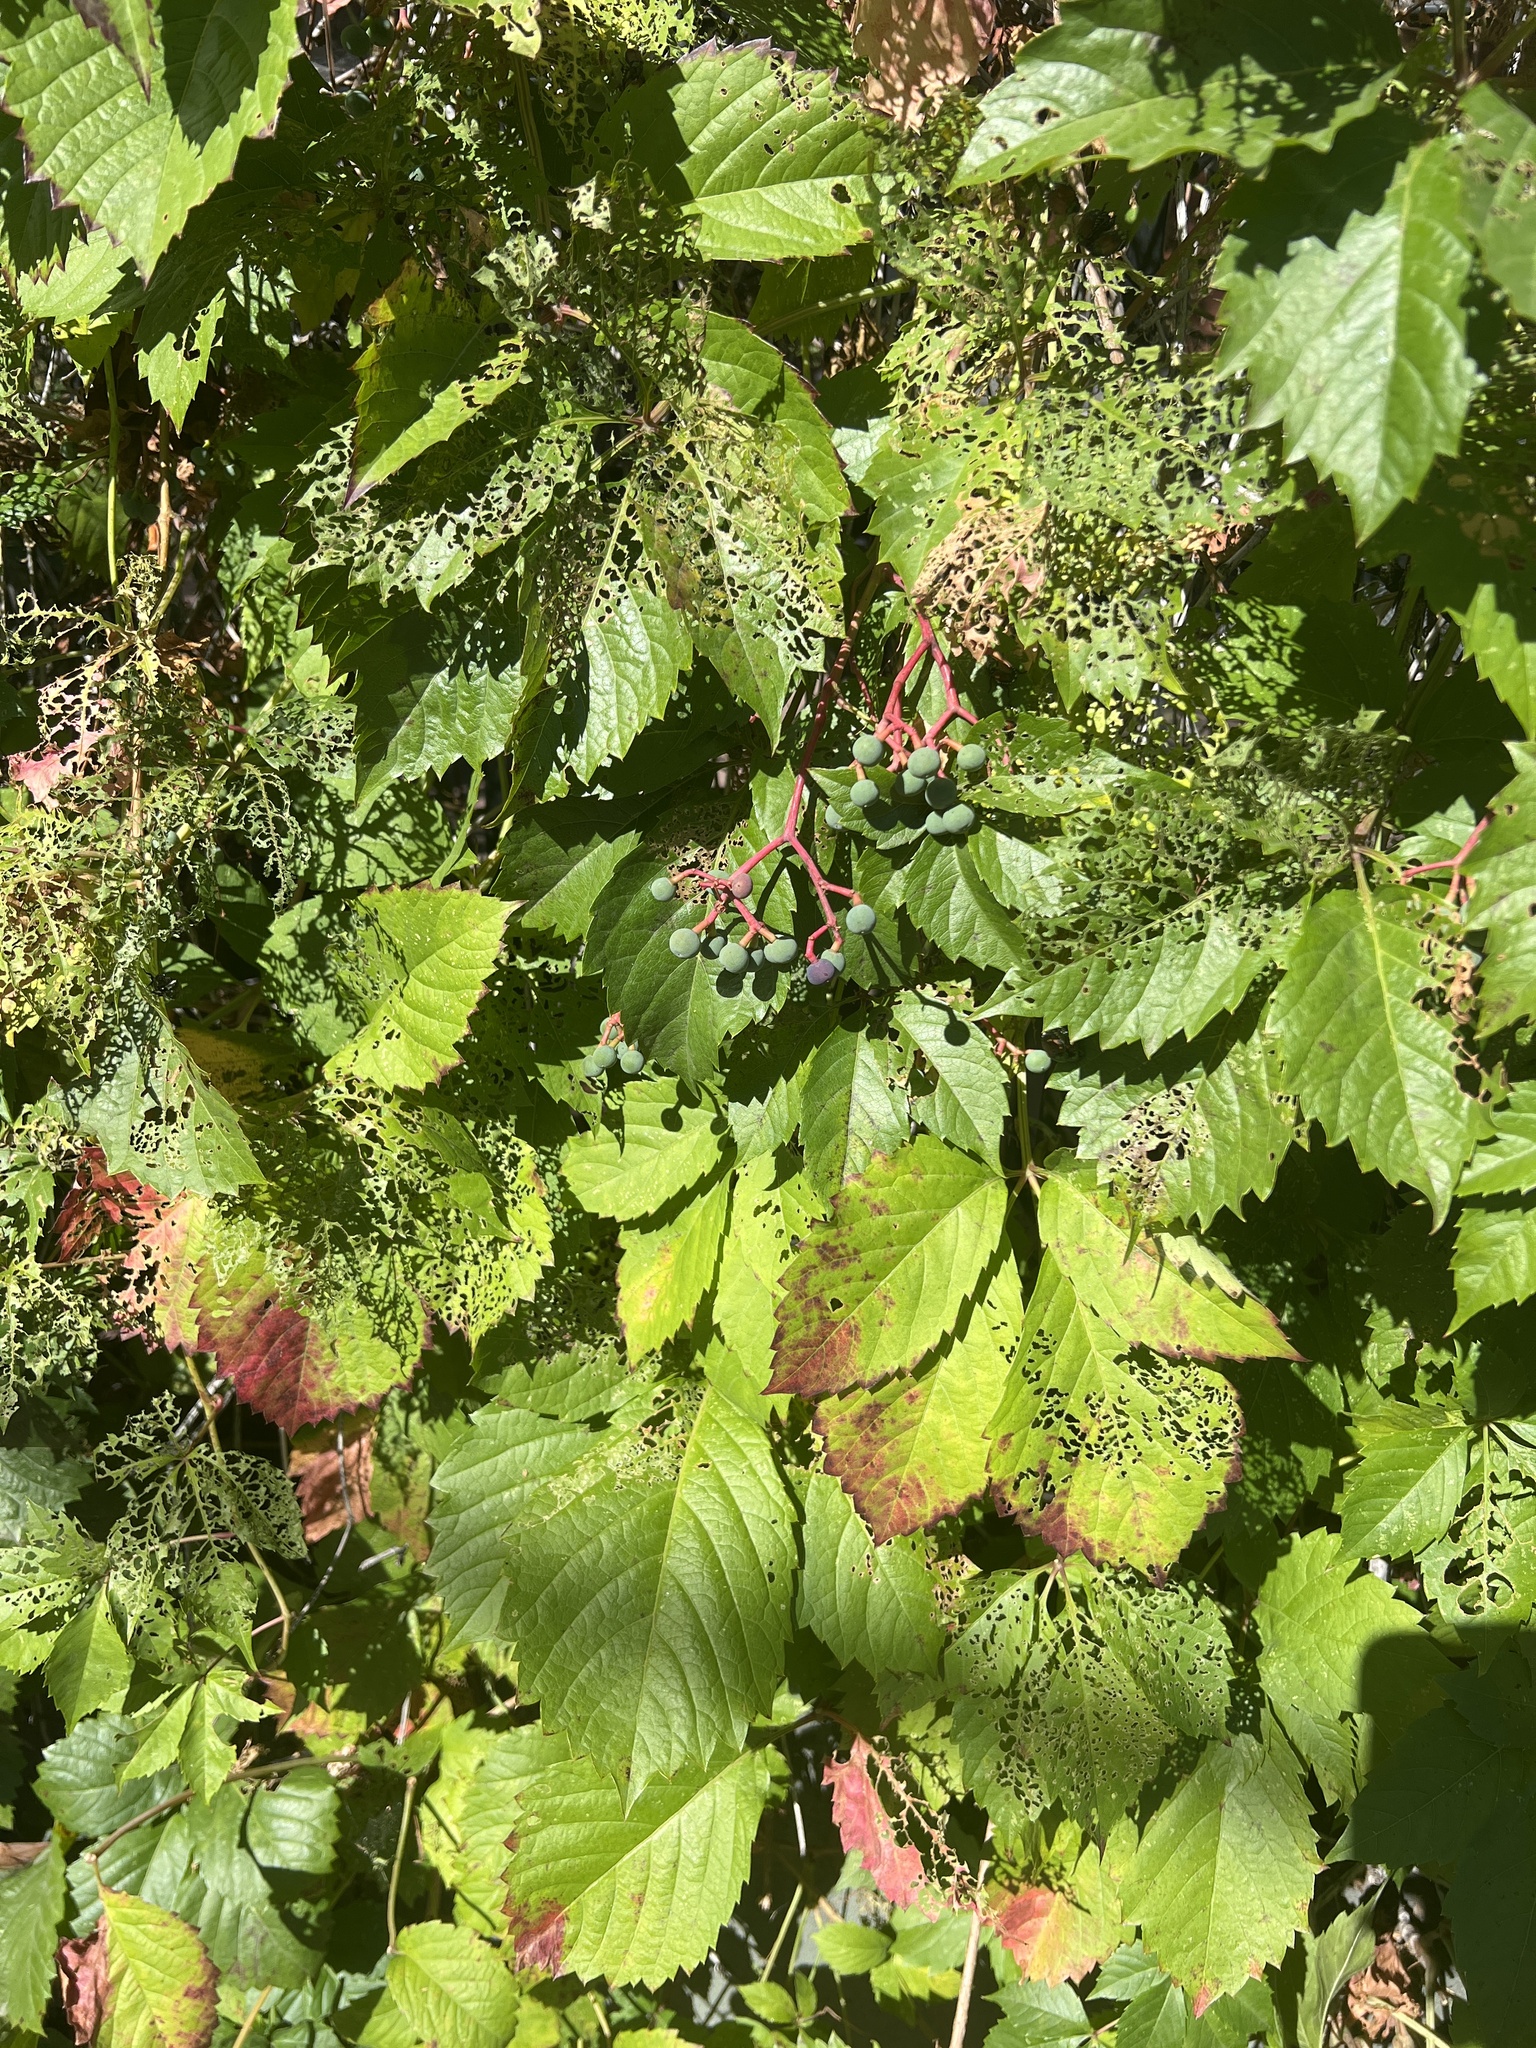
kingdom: Plantae
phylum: Tracheophyta
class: Magnoliopsida
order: Vitales
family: Vitaceae
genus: Parthenocissus
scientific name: Parthenocissus quinquefolia
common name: Virginia-creeper
